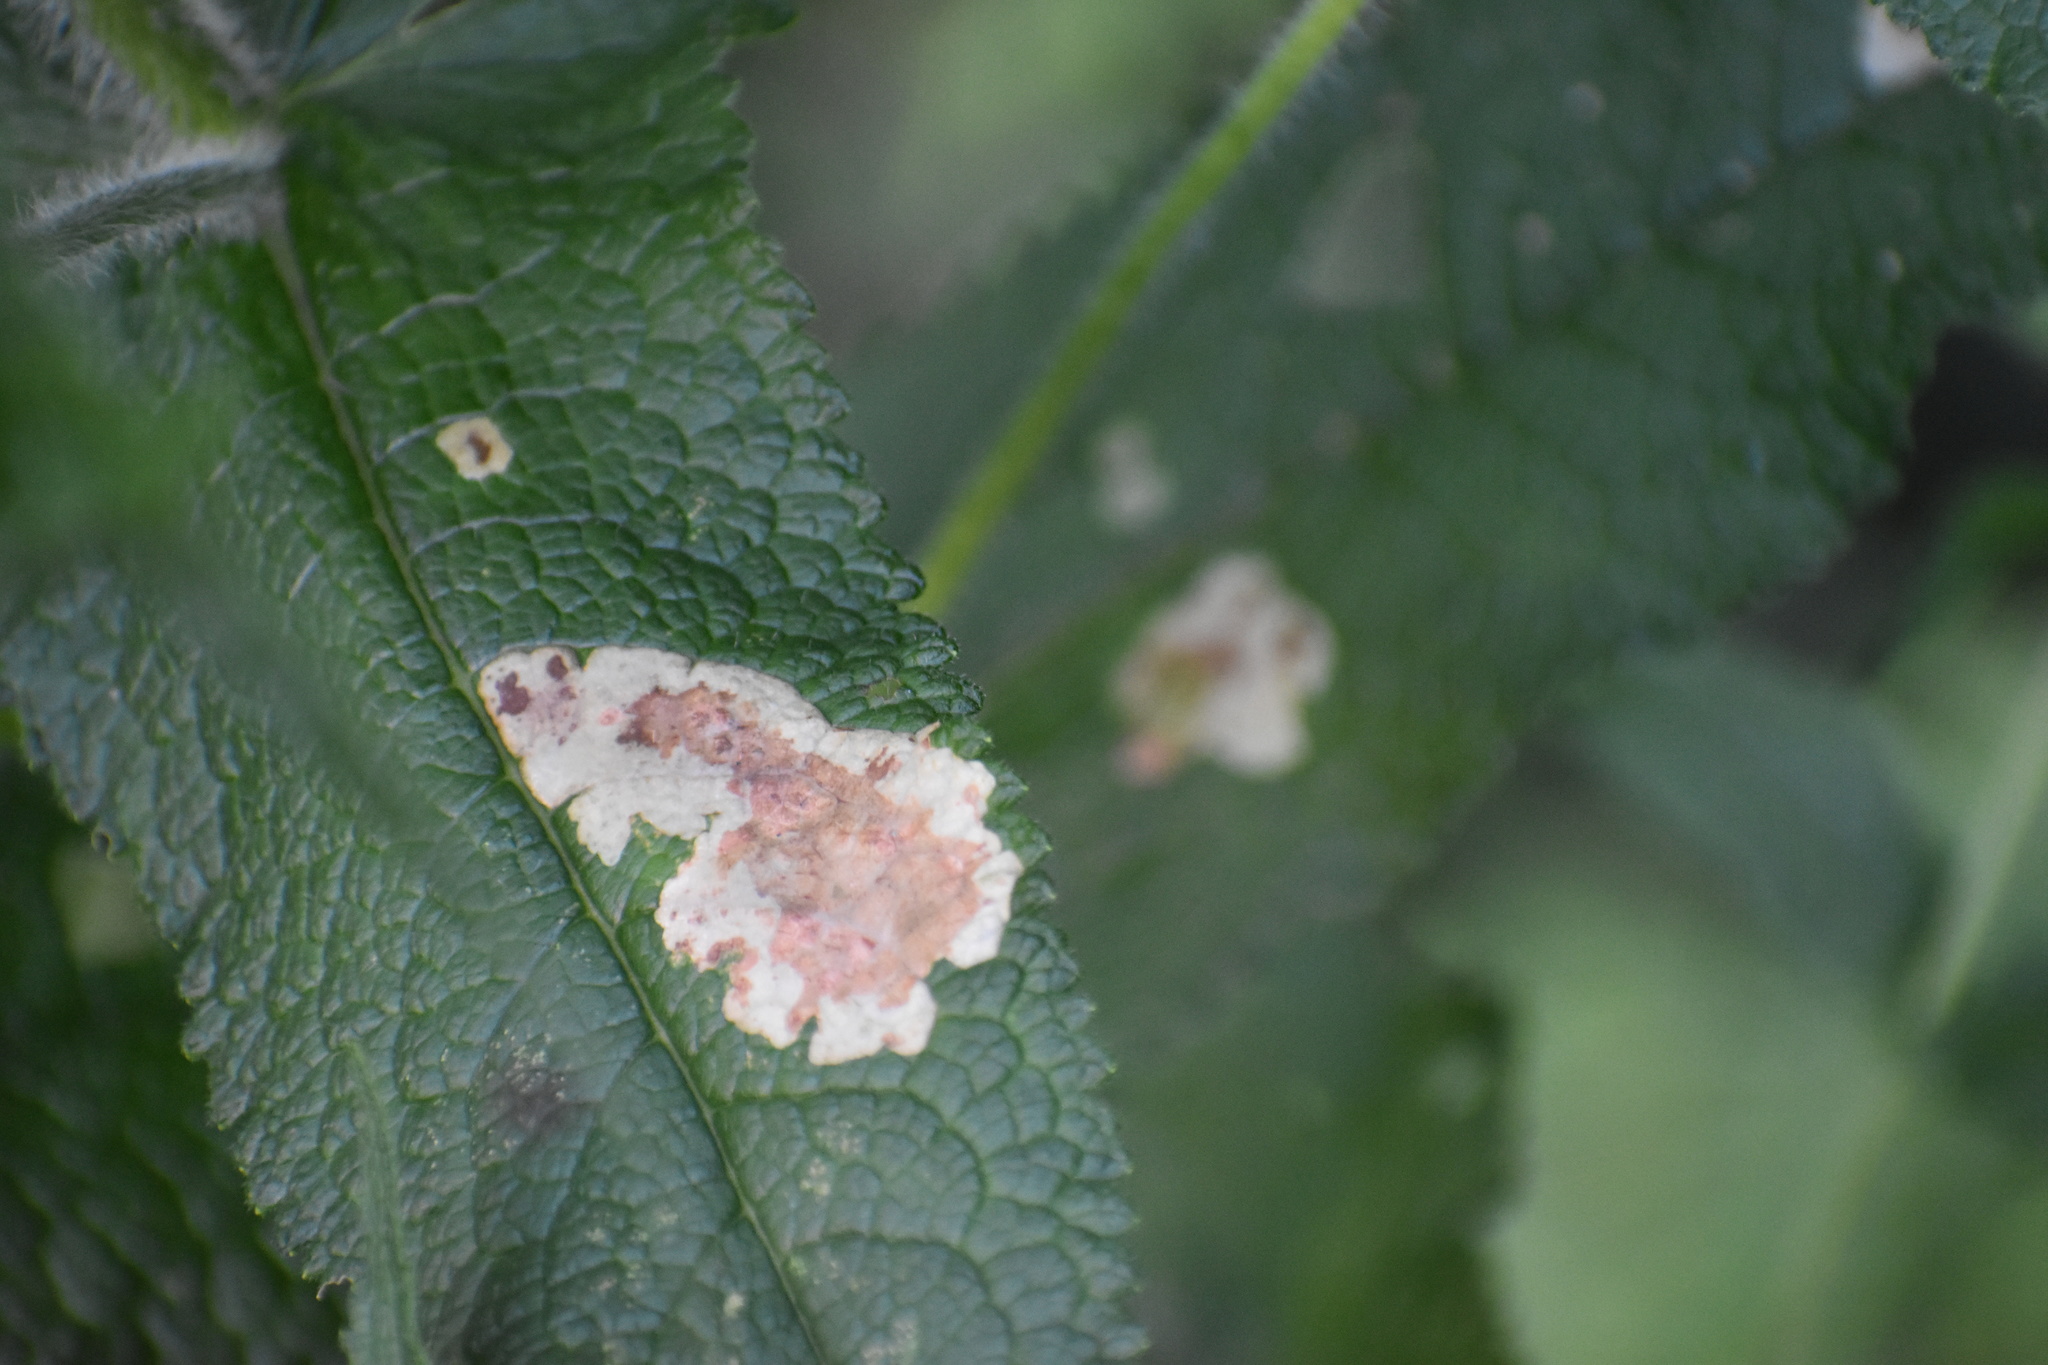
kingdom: Animalia
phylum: Arthropoda
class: Insecta
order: Diptera
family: Agromyzidae
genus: Calycomyza
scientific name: Calycomyza flavinotum
